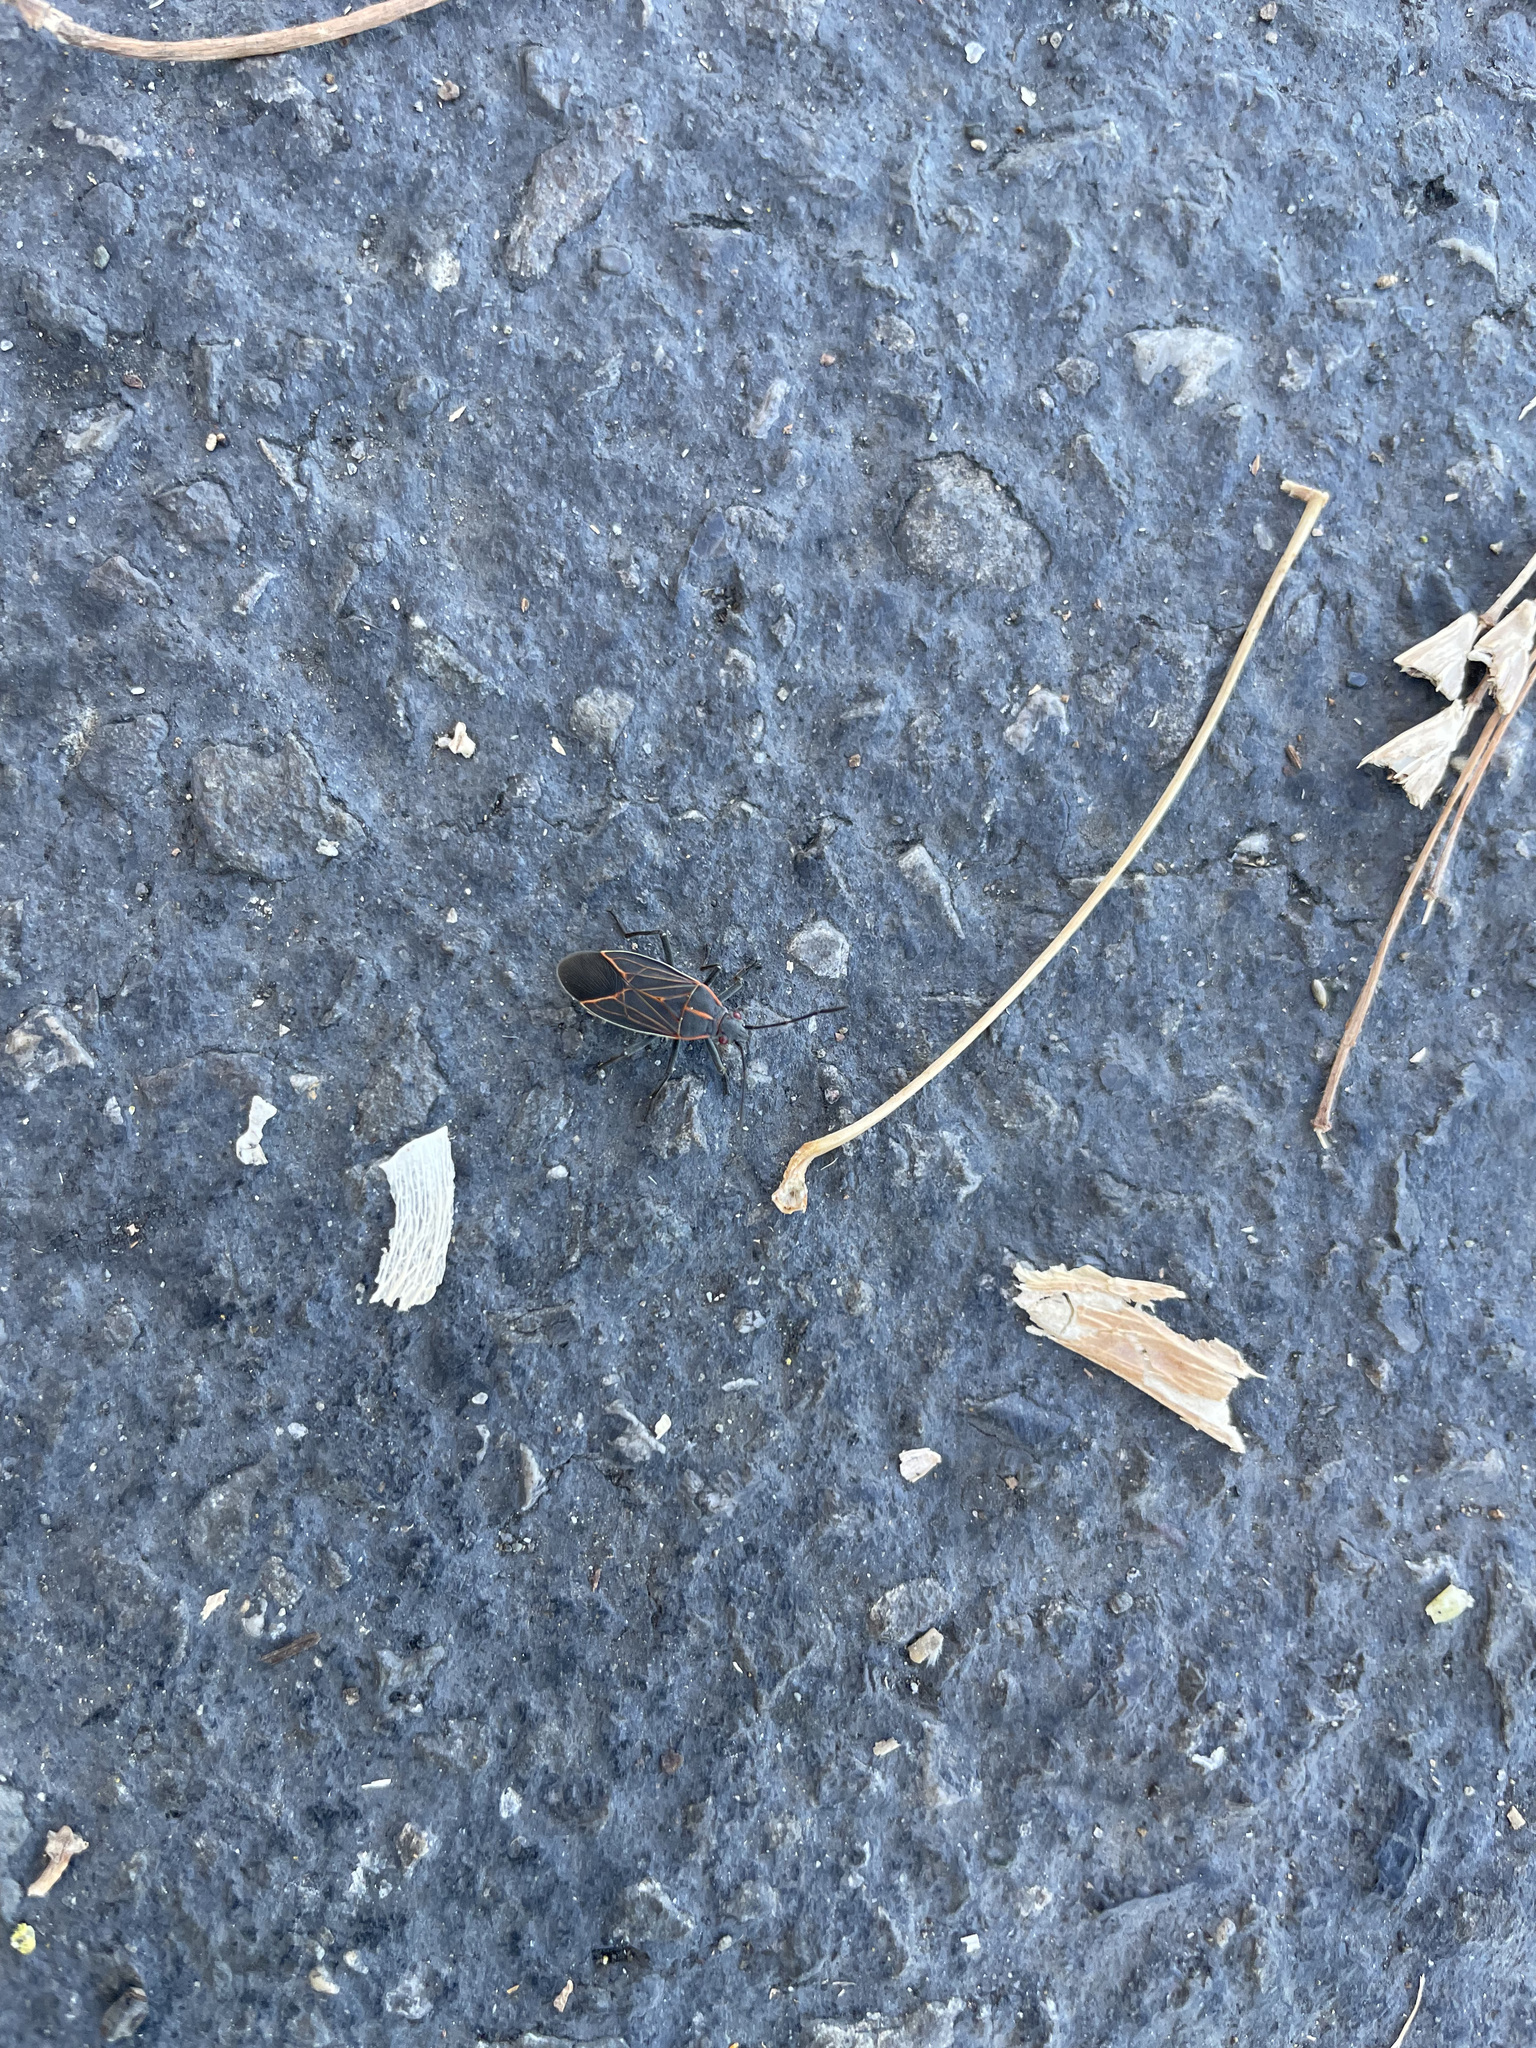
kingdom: Animalia
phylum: Arthropoda
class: Insecta
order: Hemiptera
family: Rhopalidae
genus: Boisea
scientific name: Boisea rubrolineata
